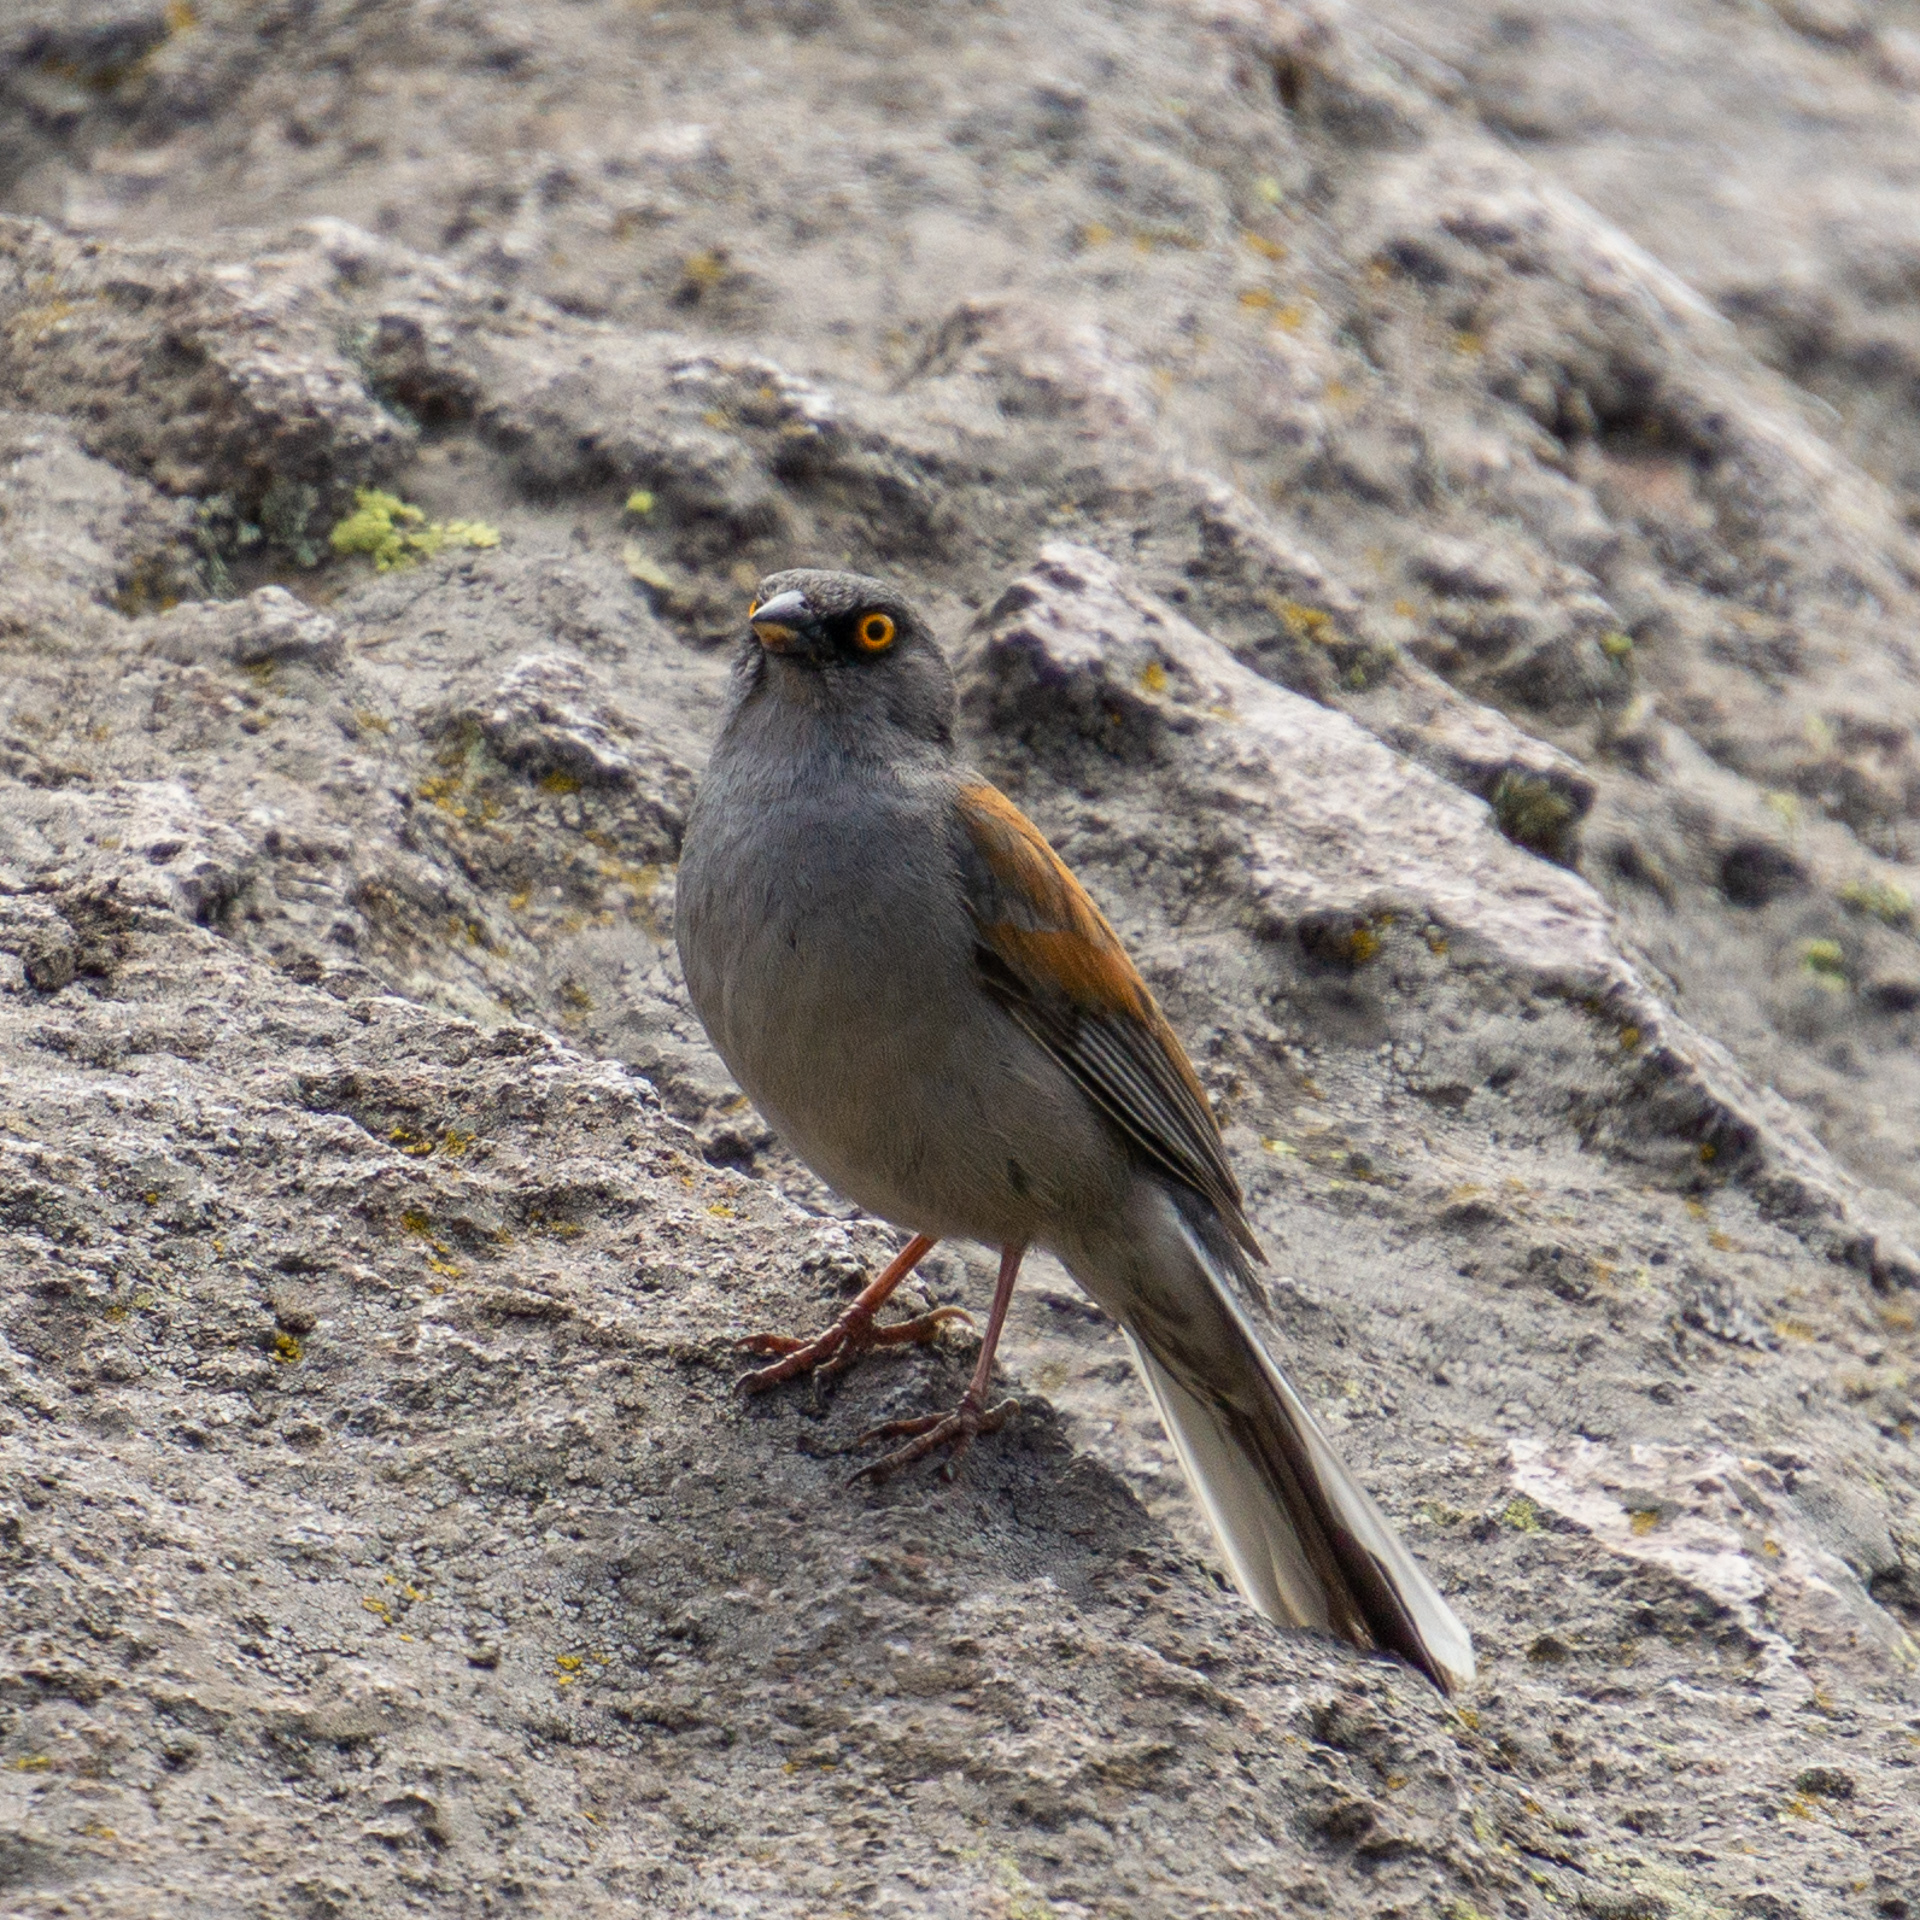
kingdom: Animalia
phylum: Chordata
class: Aves
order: Passeriformes
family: Passerellidae
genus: Junco
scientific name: Junco phaeonotus
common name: Yellow-eyed junco
